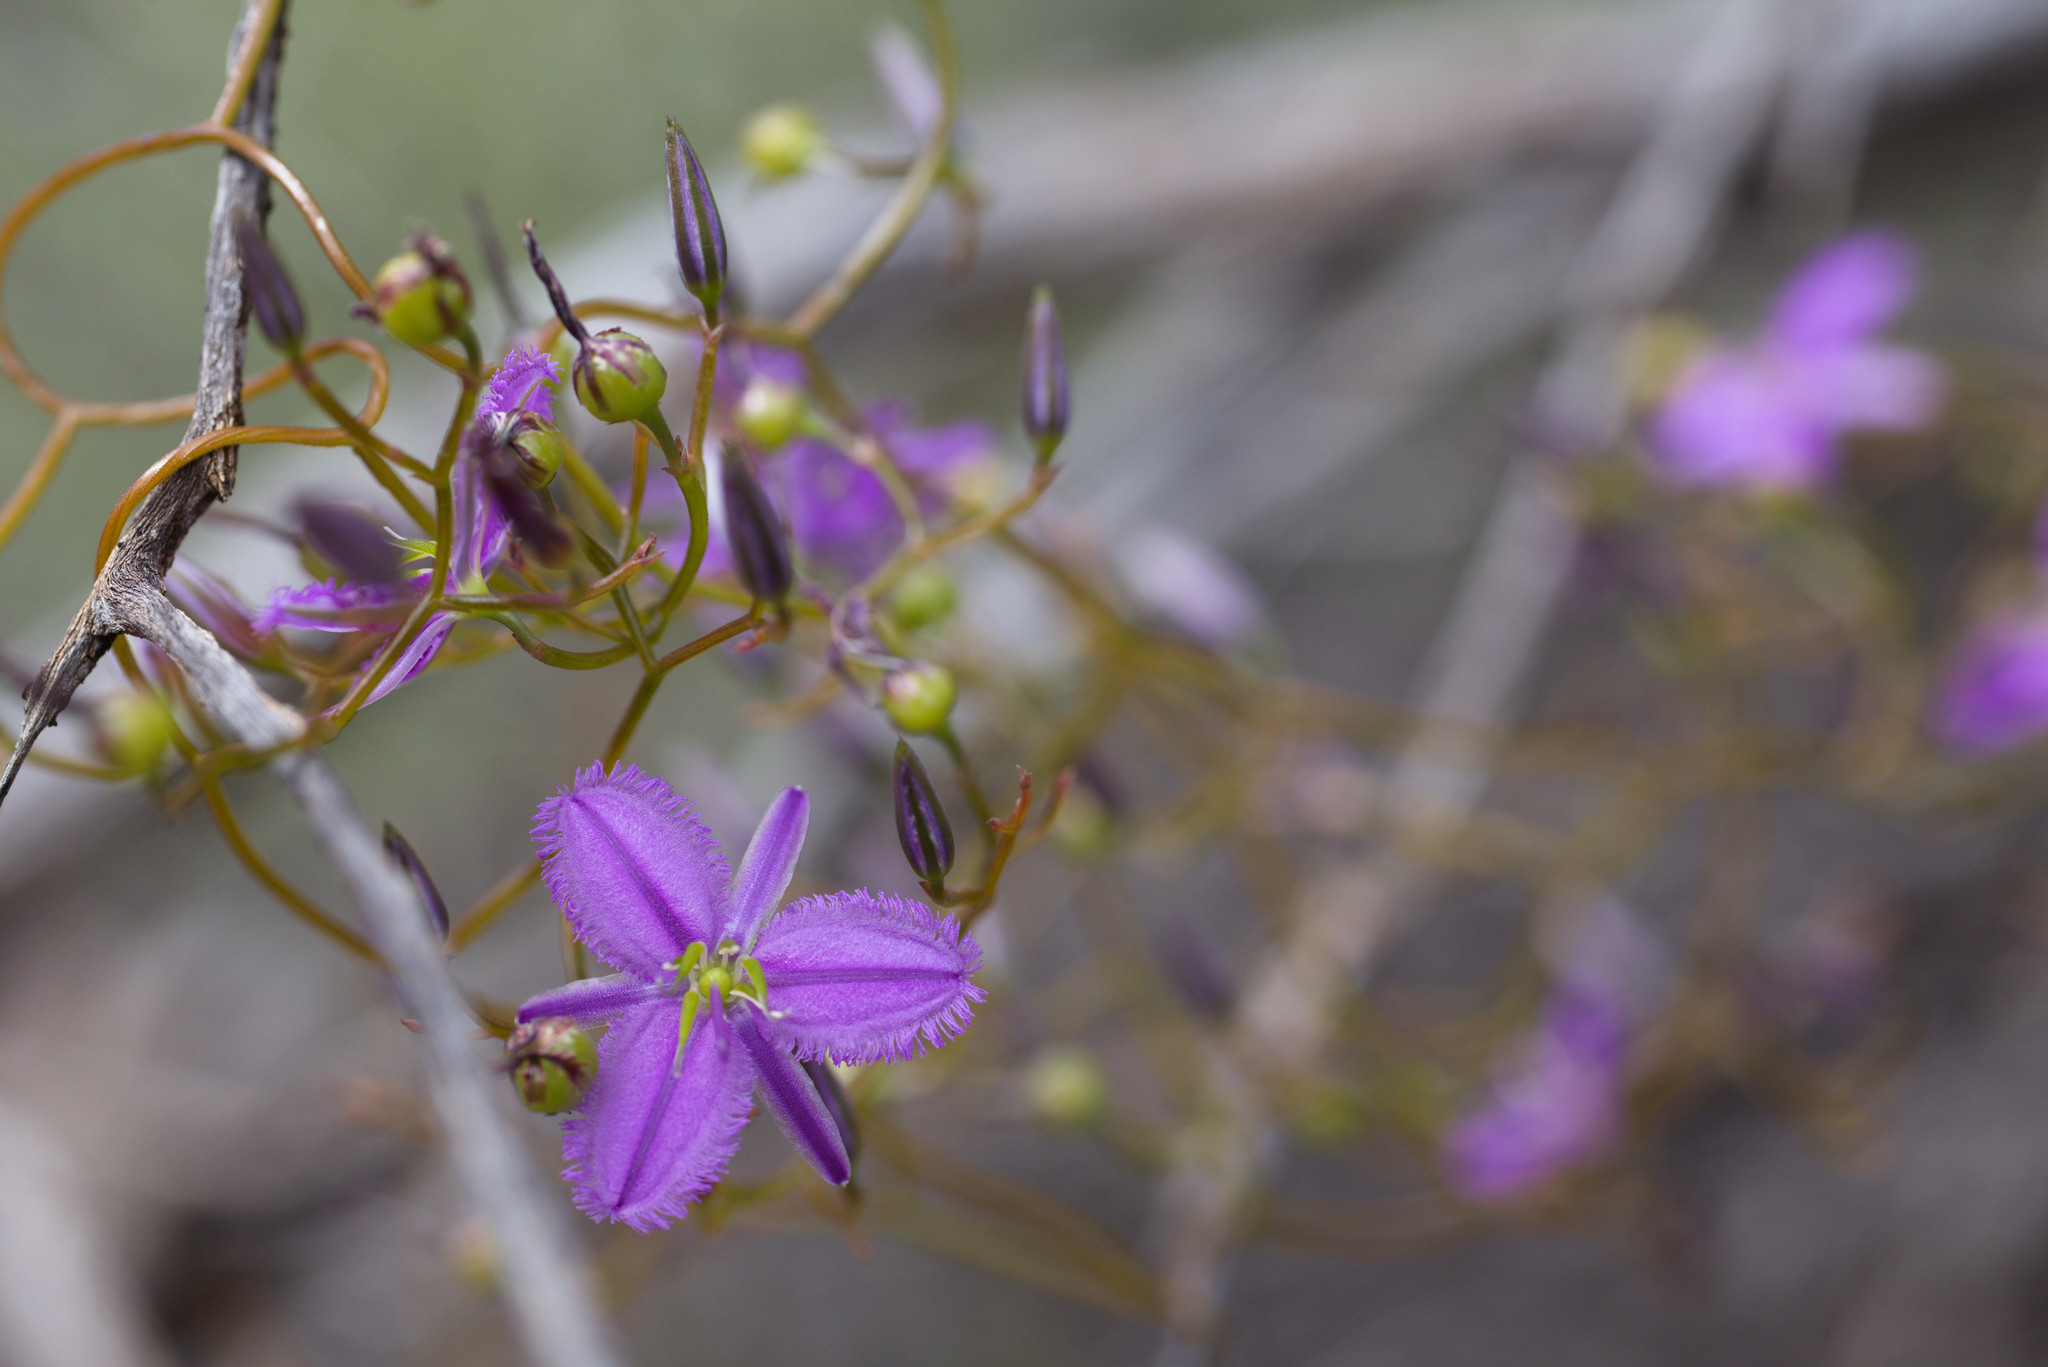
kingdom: Plantae
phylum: Tracheophyta
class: Liliopsida
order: Asparagales
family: Asparagaceae
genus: Thysanotus
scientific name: Thysanotus manglesianus
